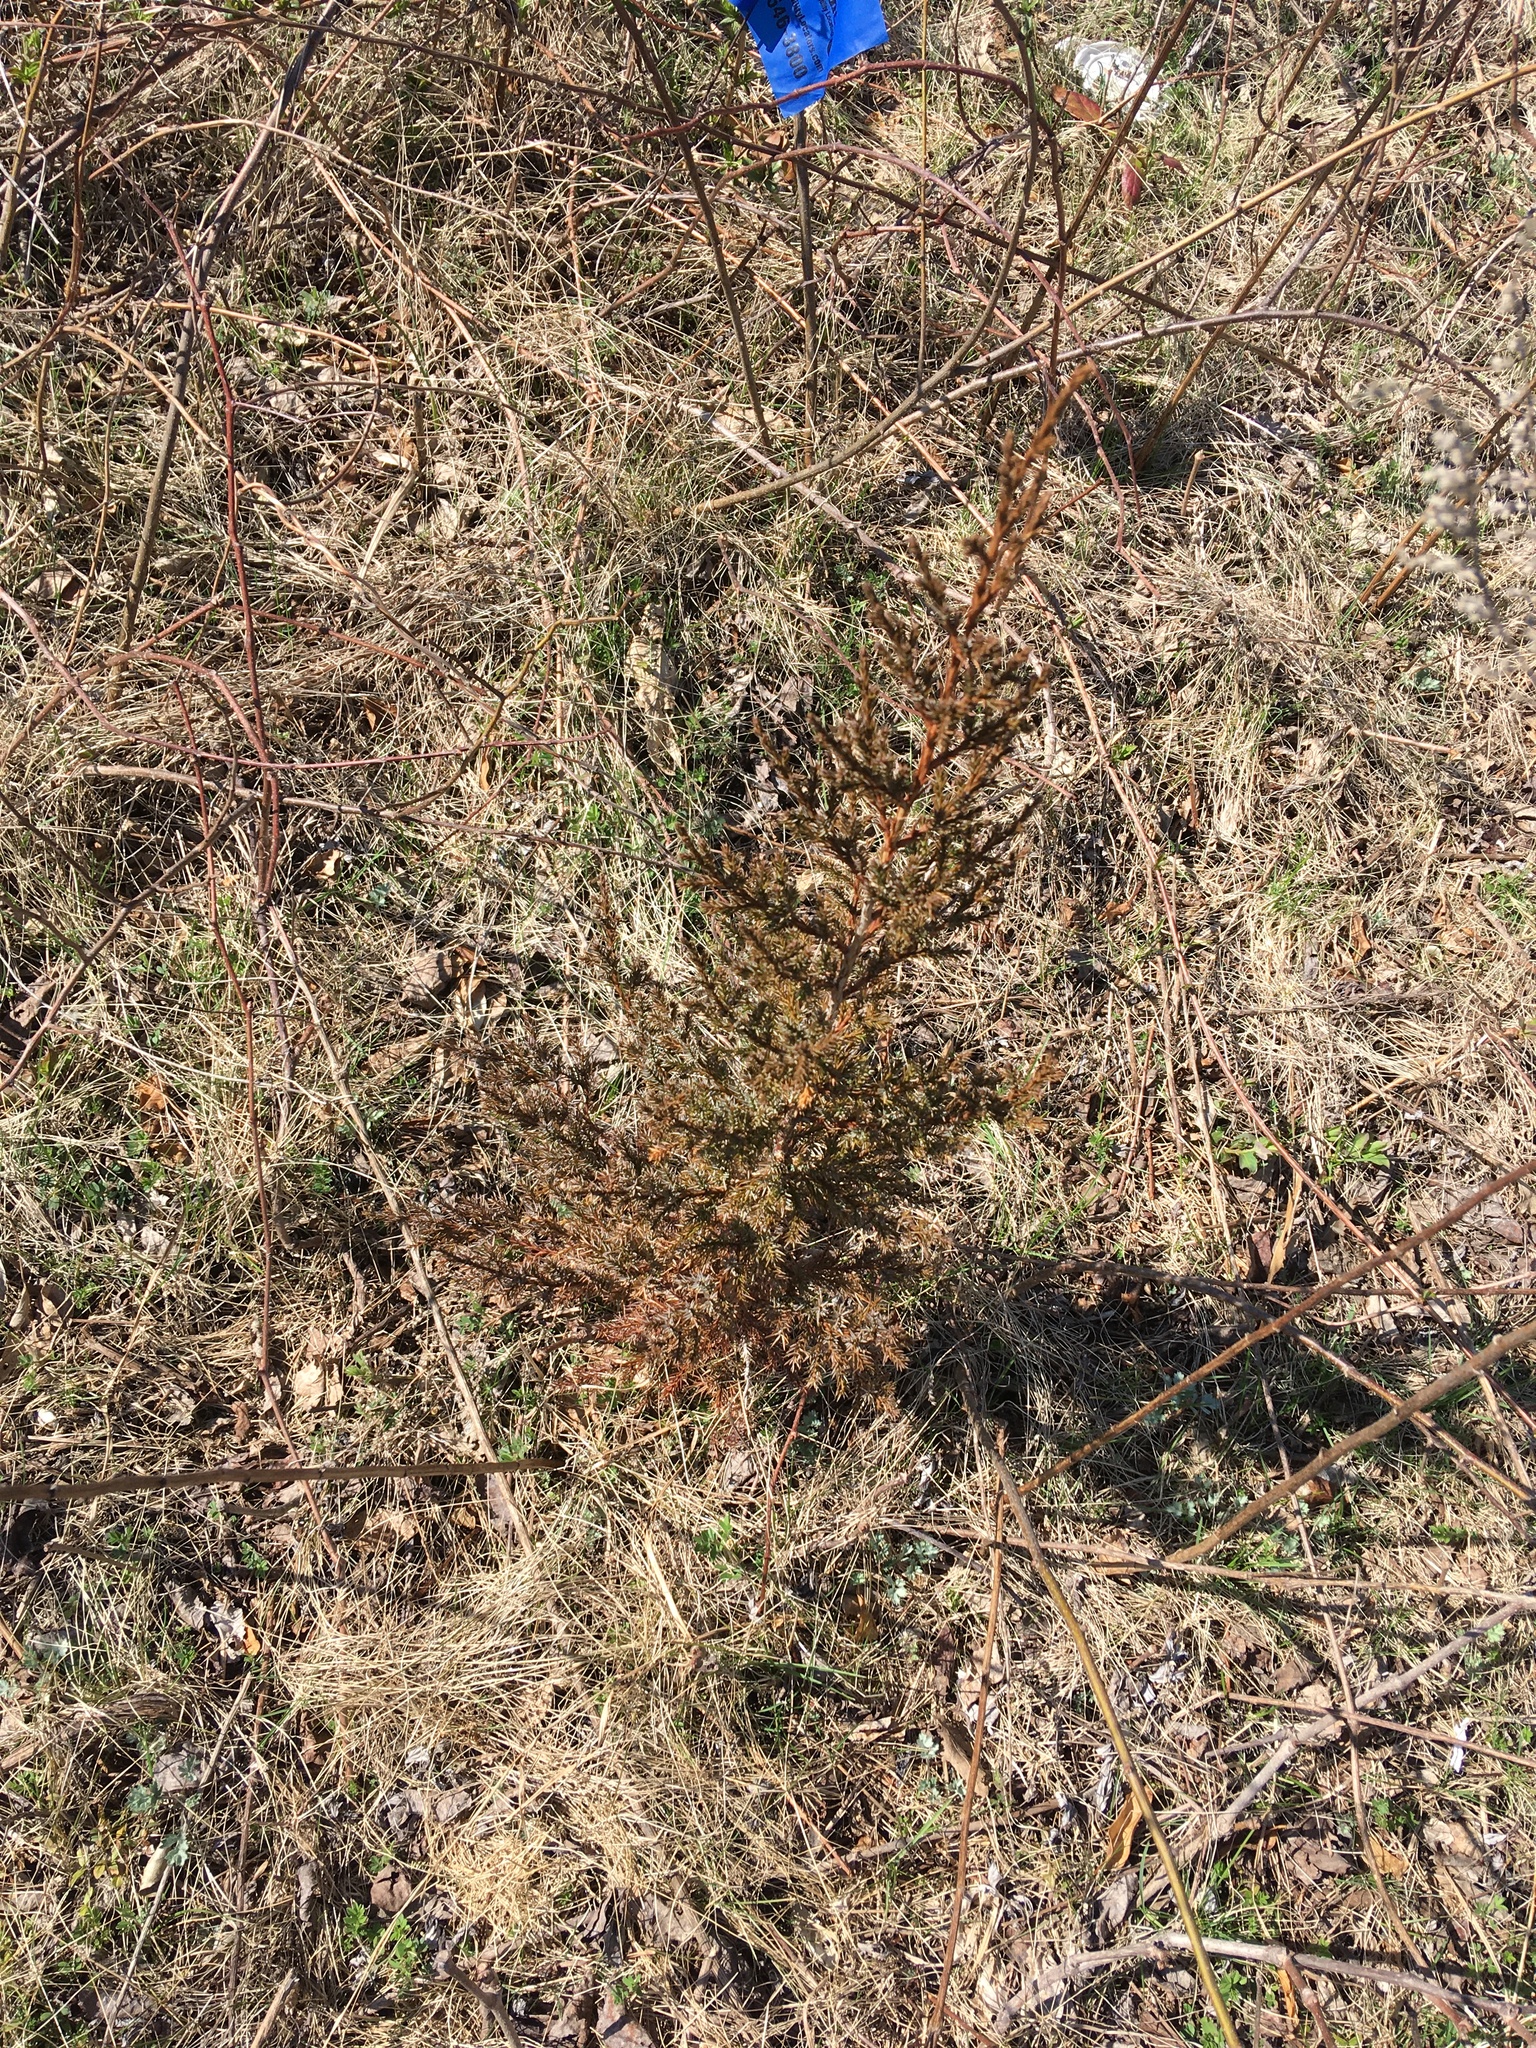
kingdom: Plantae
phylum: Tracheophyta
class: Pinopsida
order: Pinales
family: Cupressaceae
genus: Juniperus
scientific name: Juniperus virginiana
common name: Red juniper
